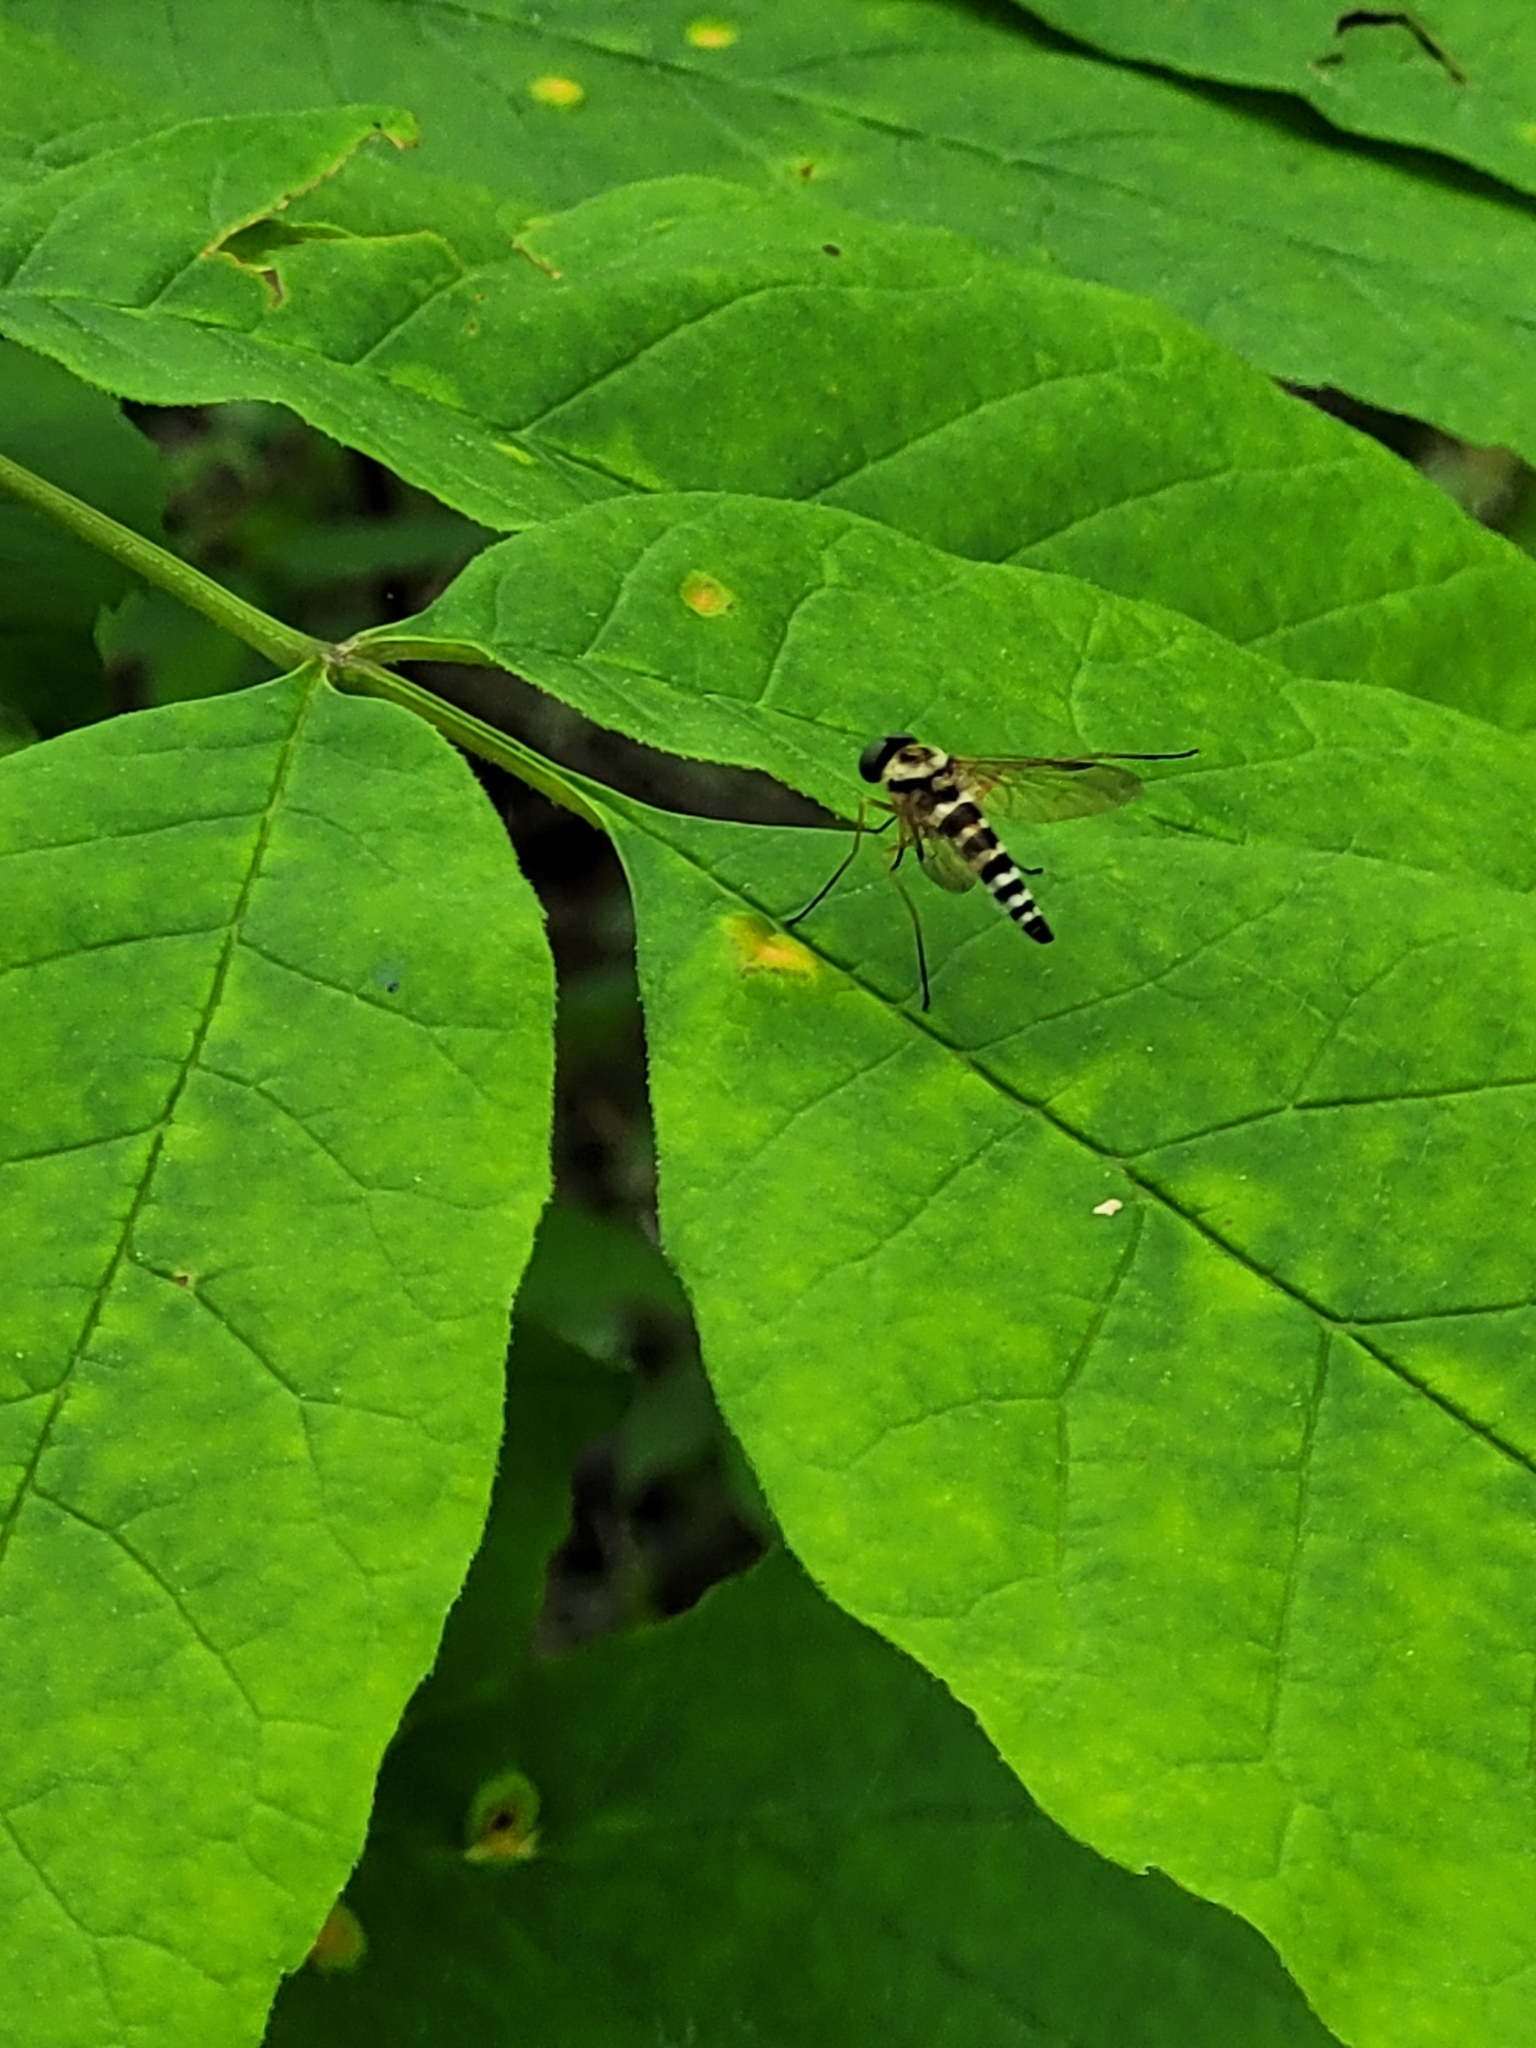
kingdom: Animalia
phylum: Arthropoda
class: Insecta
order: Diptera
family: Rhagionidae
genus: Chrysopilus
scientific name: Chrysopilus ornatus
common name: Ornate snipe fly
